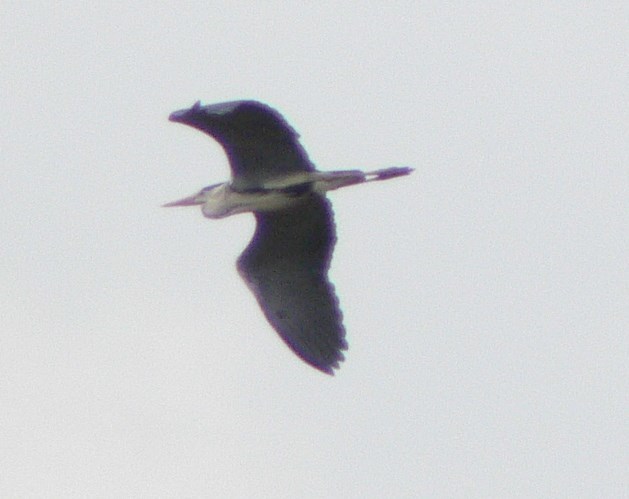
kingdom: Animalia
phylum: Chordata
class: Aves
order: Pelecaniformes
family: Ardeidae
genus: Ardea
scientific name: Ardea cinerea
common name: Grey heron
